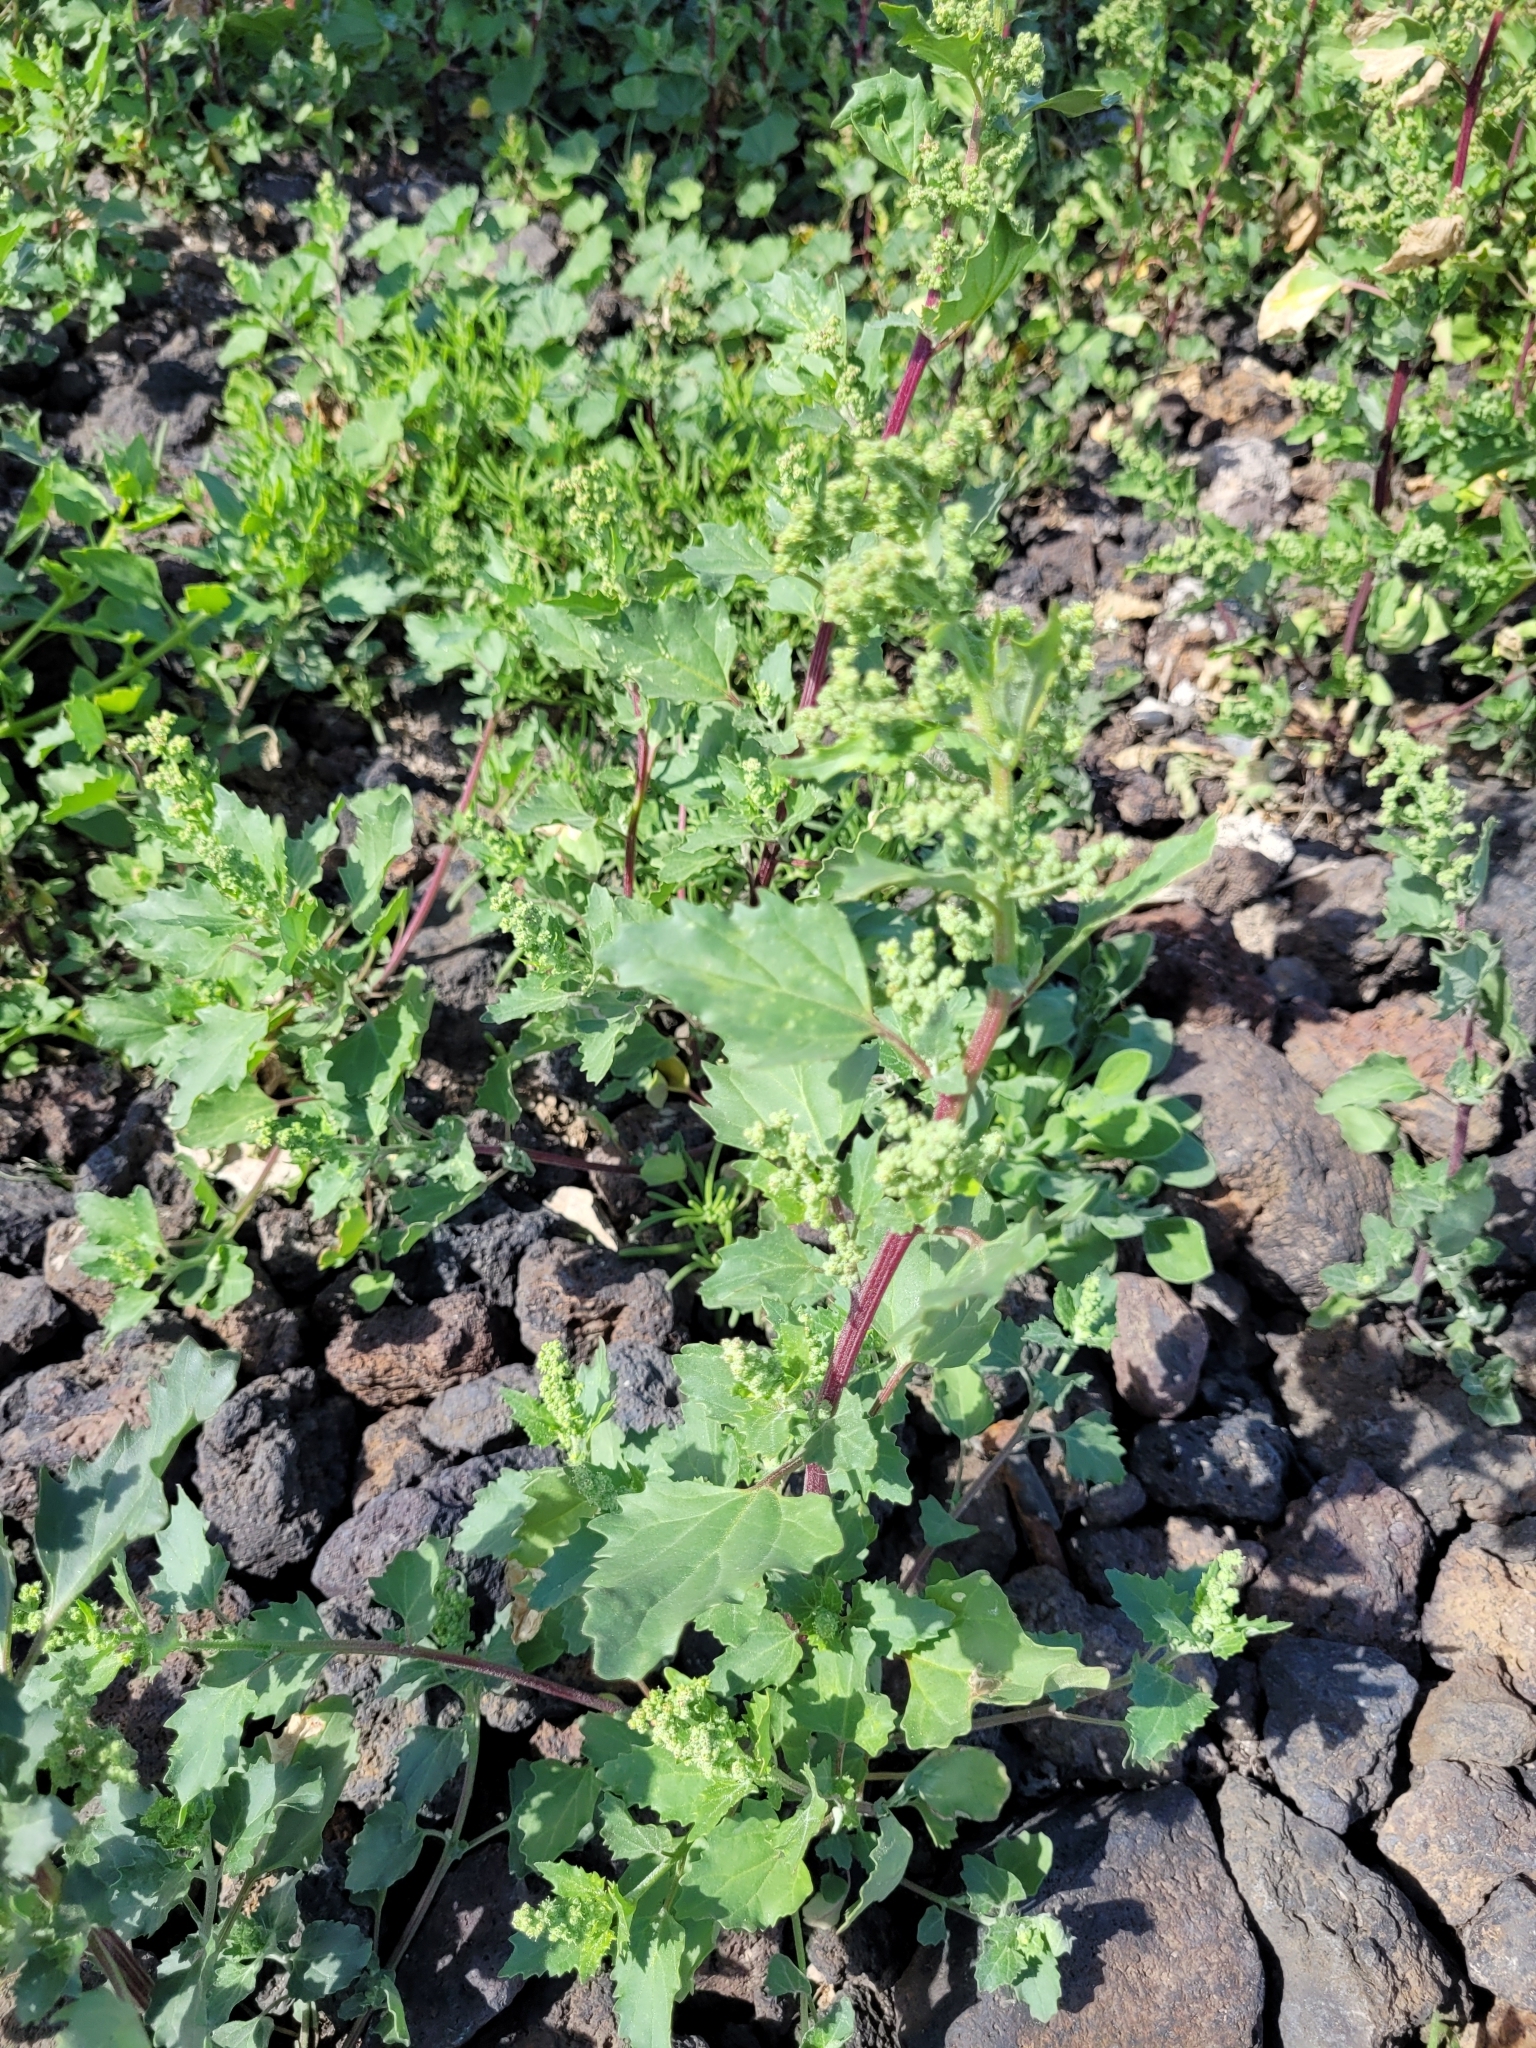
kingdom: Plantae
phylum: Tracheophyta
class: Magnoliopsida
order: Caryophyllales
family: Amaranthaceae
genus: Chenopodiastrum
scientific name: Chenopodiastrum murale
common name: Sowbane
